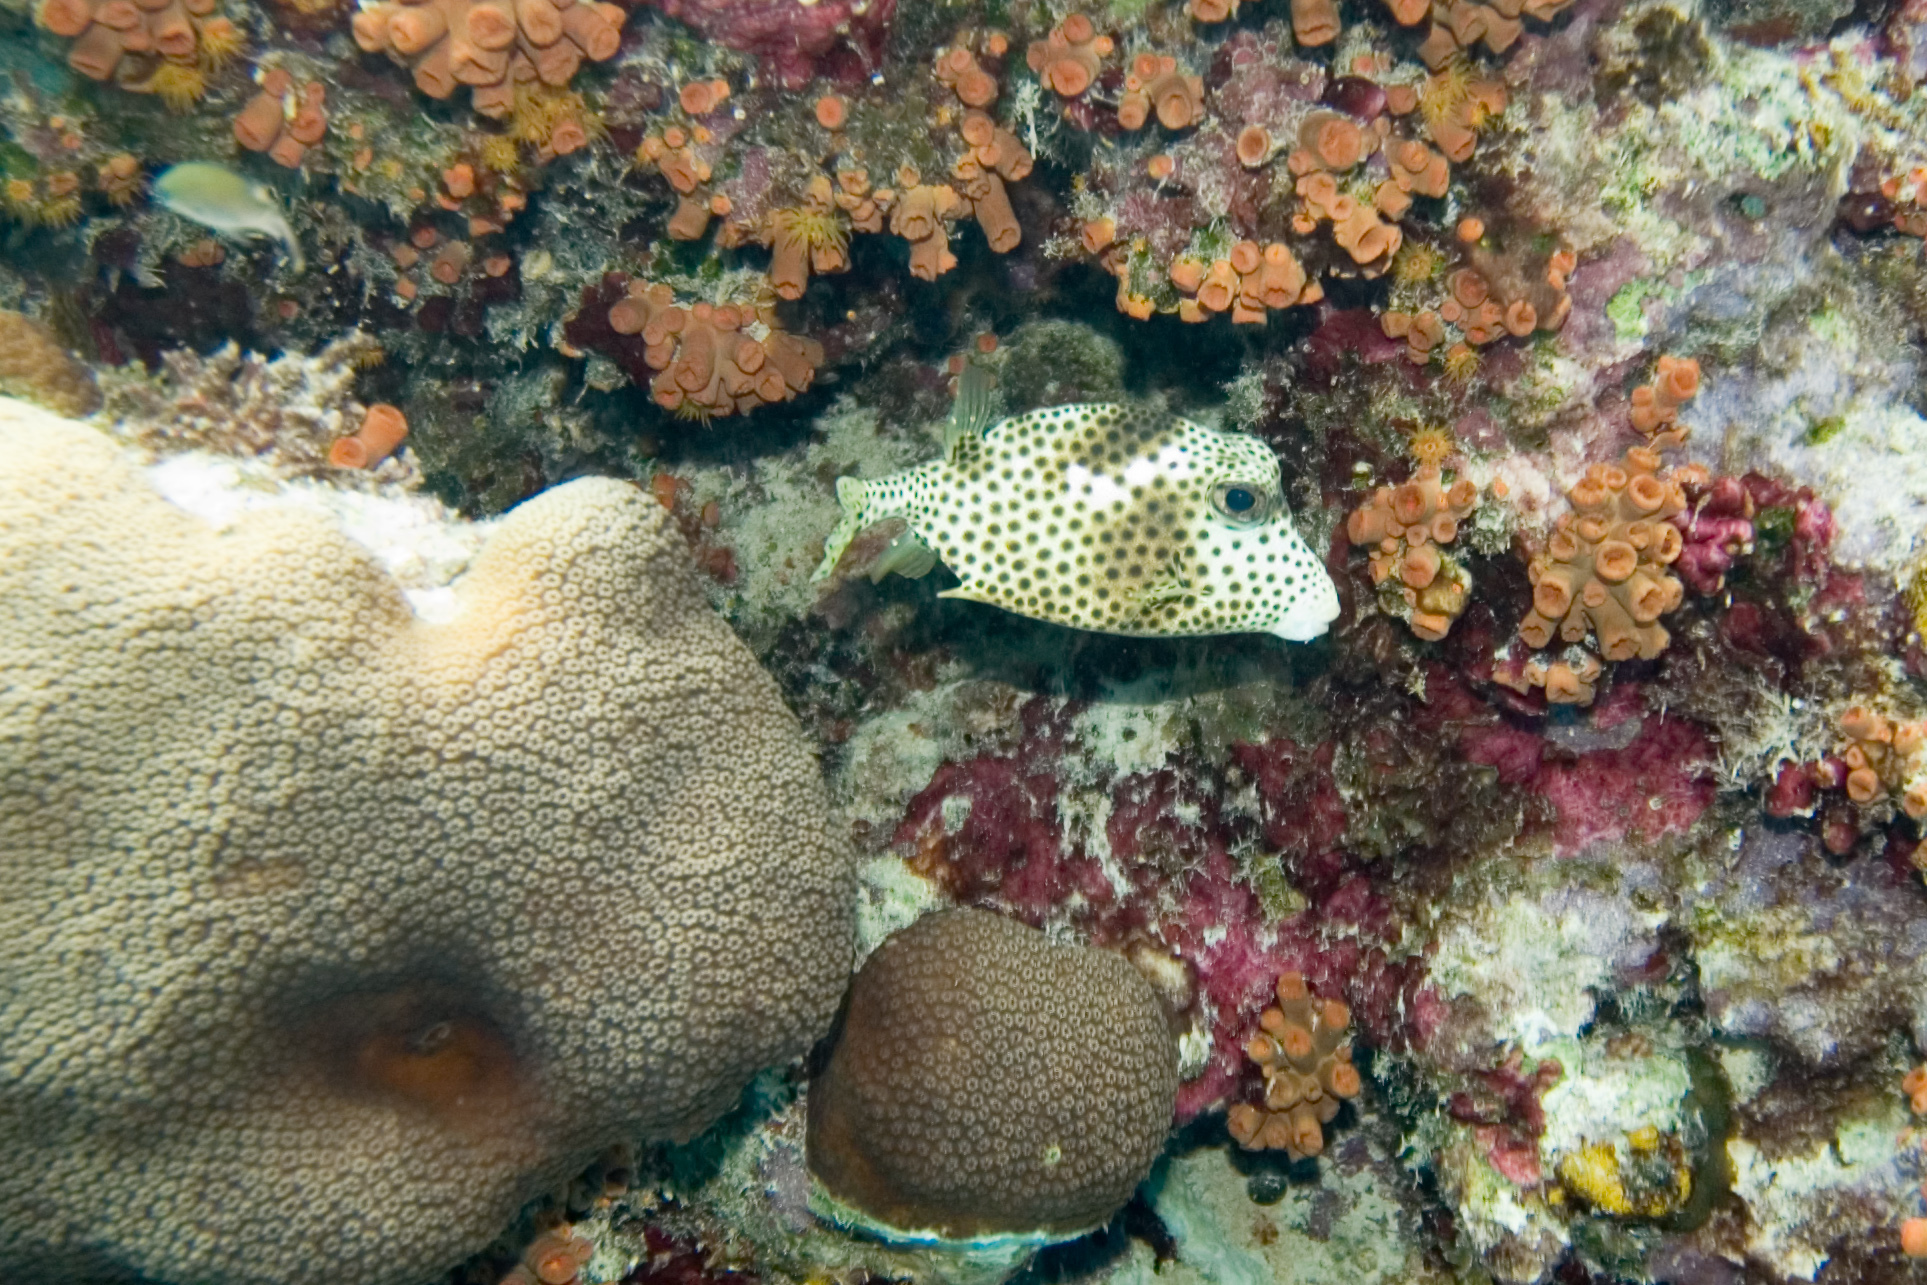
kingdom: Animalia
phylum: Cnidaria
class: Anthozoa
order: Scleractinia
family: Dendrophylliidae
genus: Tubastraea
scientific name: Tubastraea coccinea
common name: Orange cup coral
